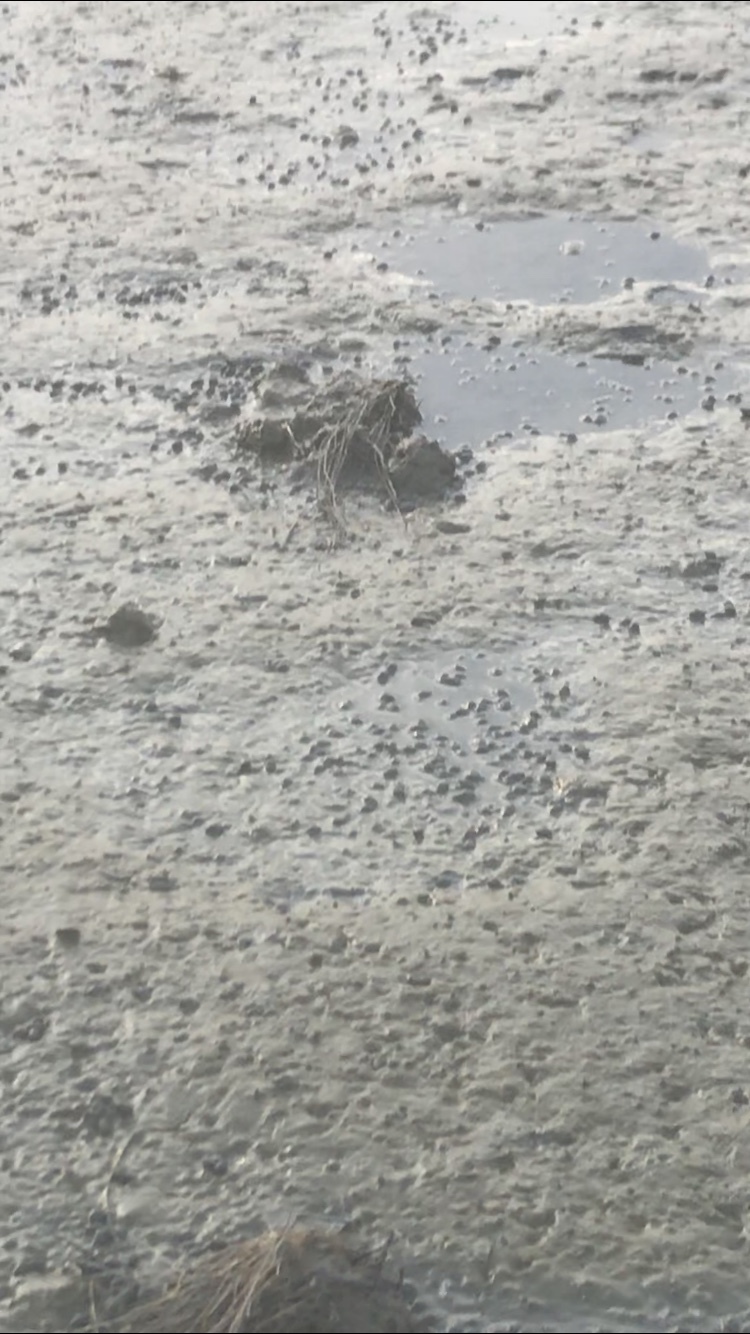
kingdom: Animalia
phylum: Mollusca
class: Gastropoda
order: Neogastropoda
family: Nassariidae
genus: Ilyanassa
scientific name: Ilyanassa obsoleta
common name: Eastern mudsnail
